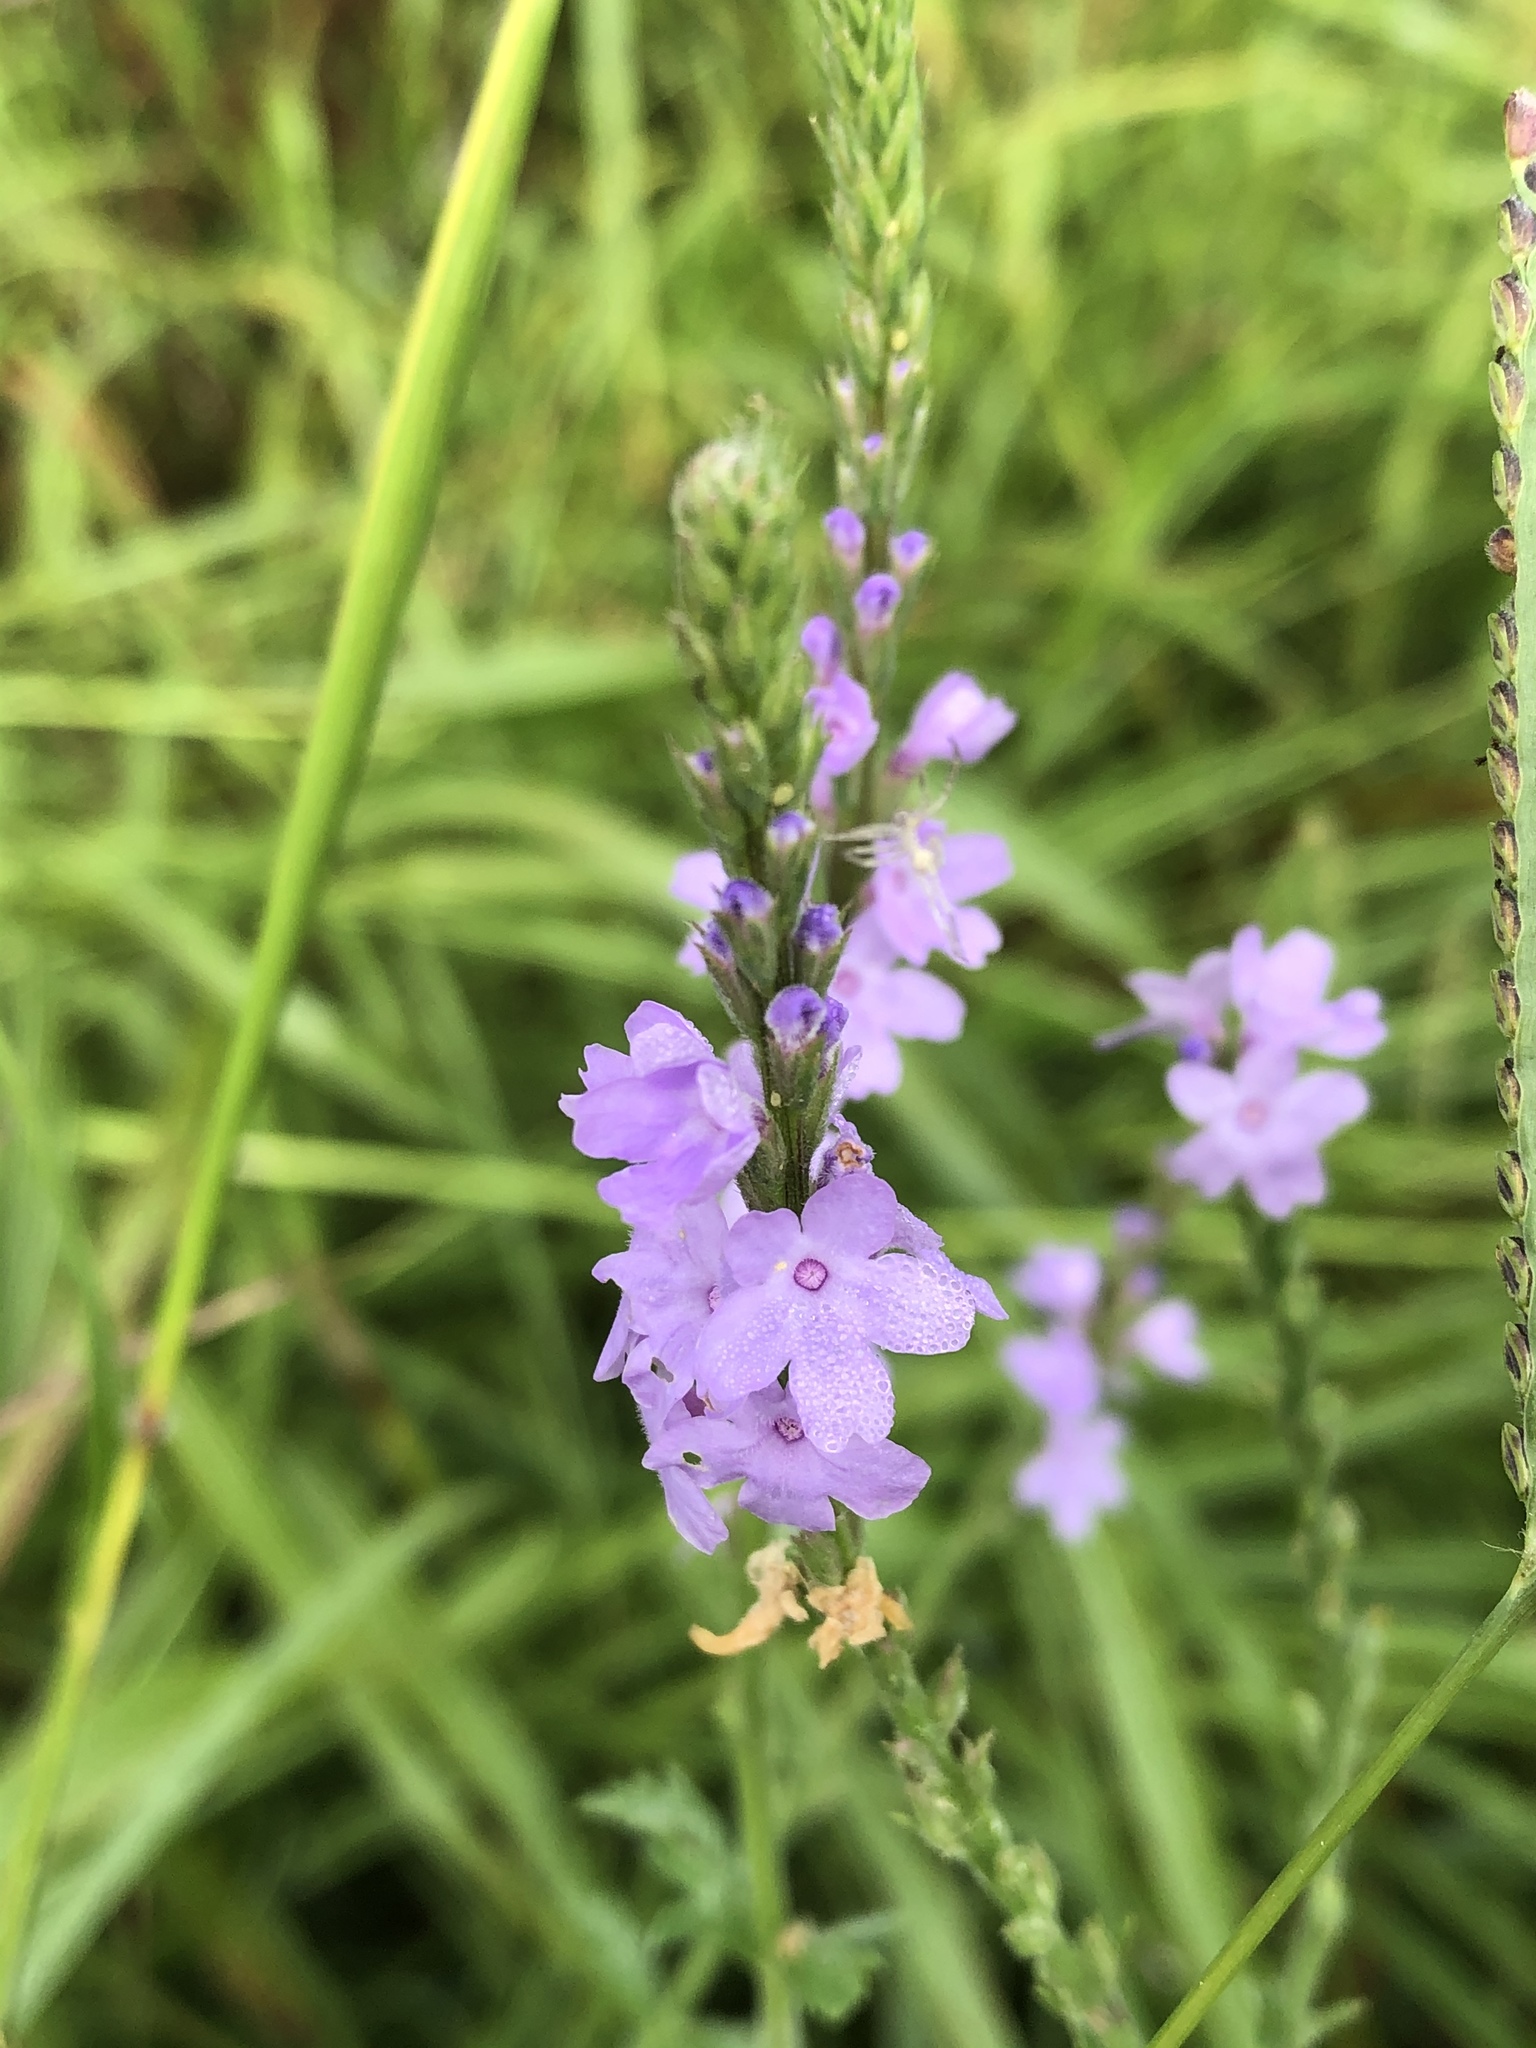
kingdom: Plantae
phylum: Tracheophyta
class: Magnoliopsida
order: Lamiales
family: Verbenaceae
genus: Verbena
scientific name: Verbena halei
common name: Texas vervain
